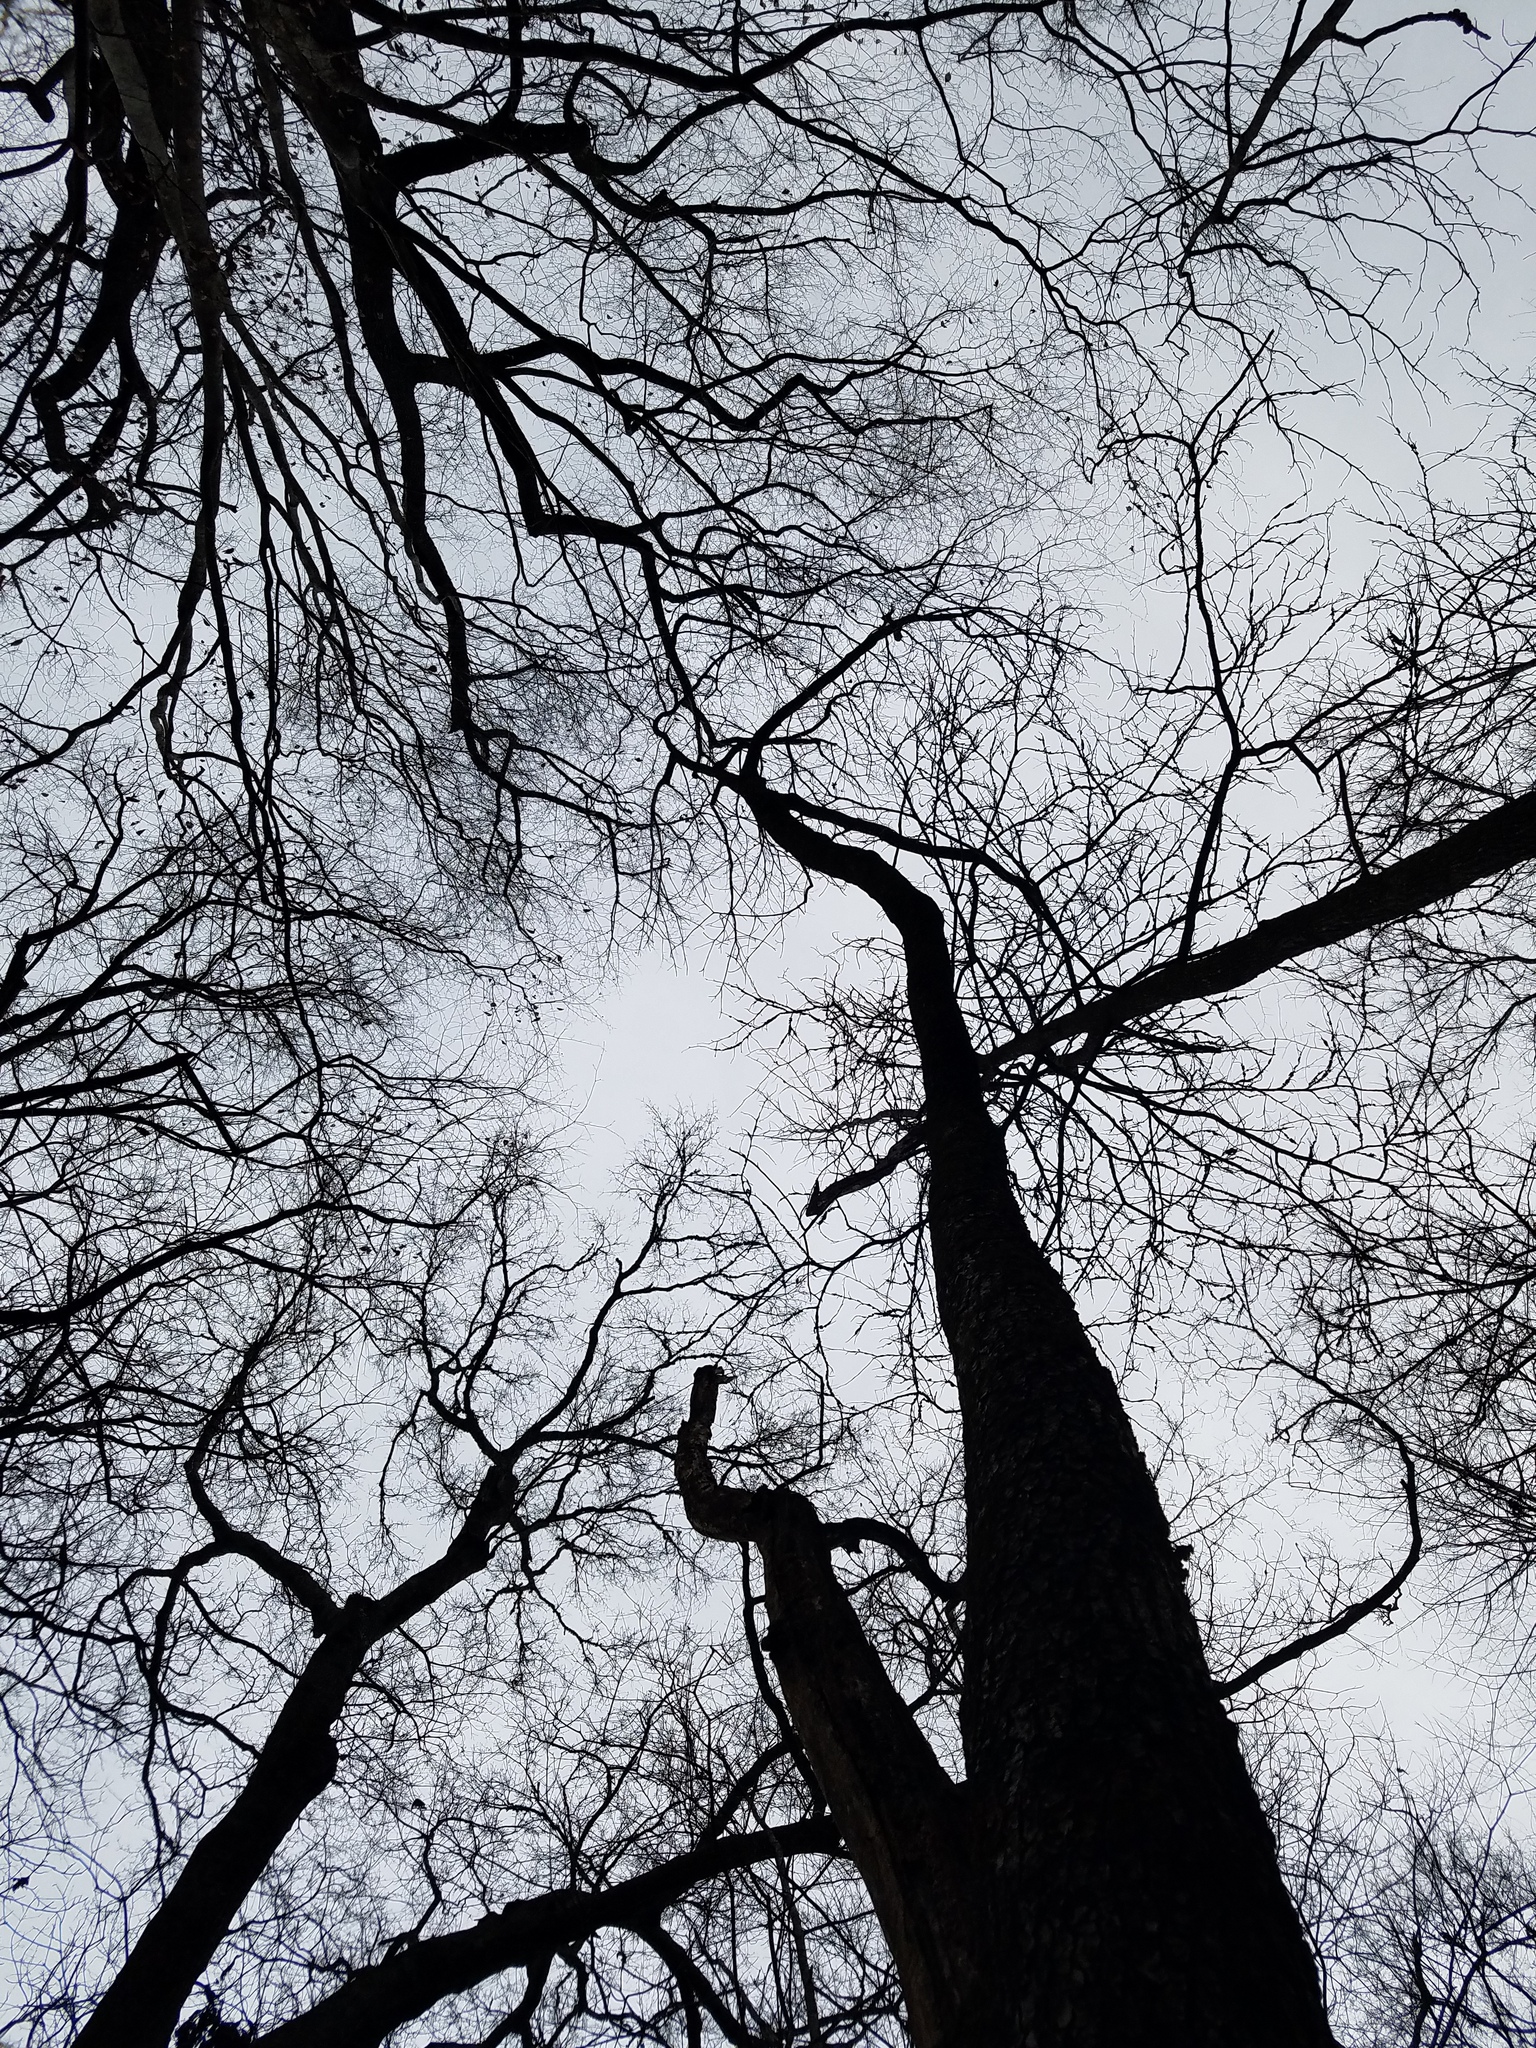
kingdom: Plantae
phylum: Tracheophyta
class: Magnoliopsida
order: Rosales
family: Rosaceae
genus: Prunus
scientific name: Prunus serotina
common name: Black cherry
